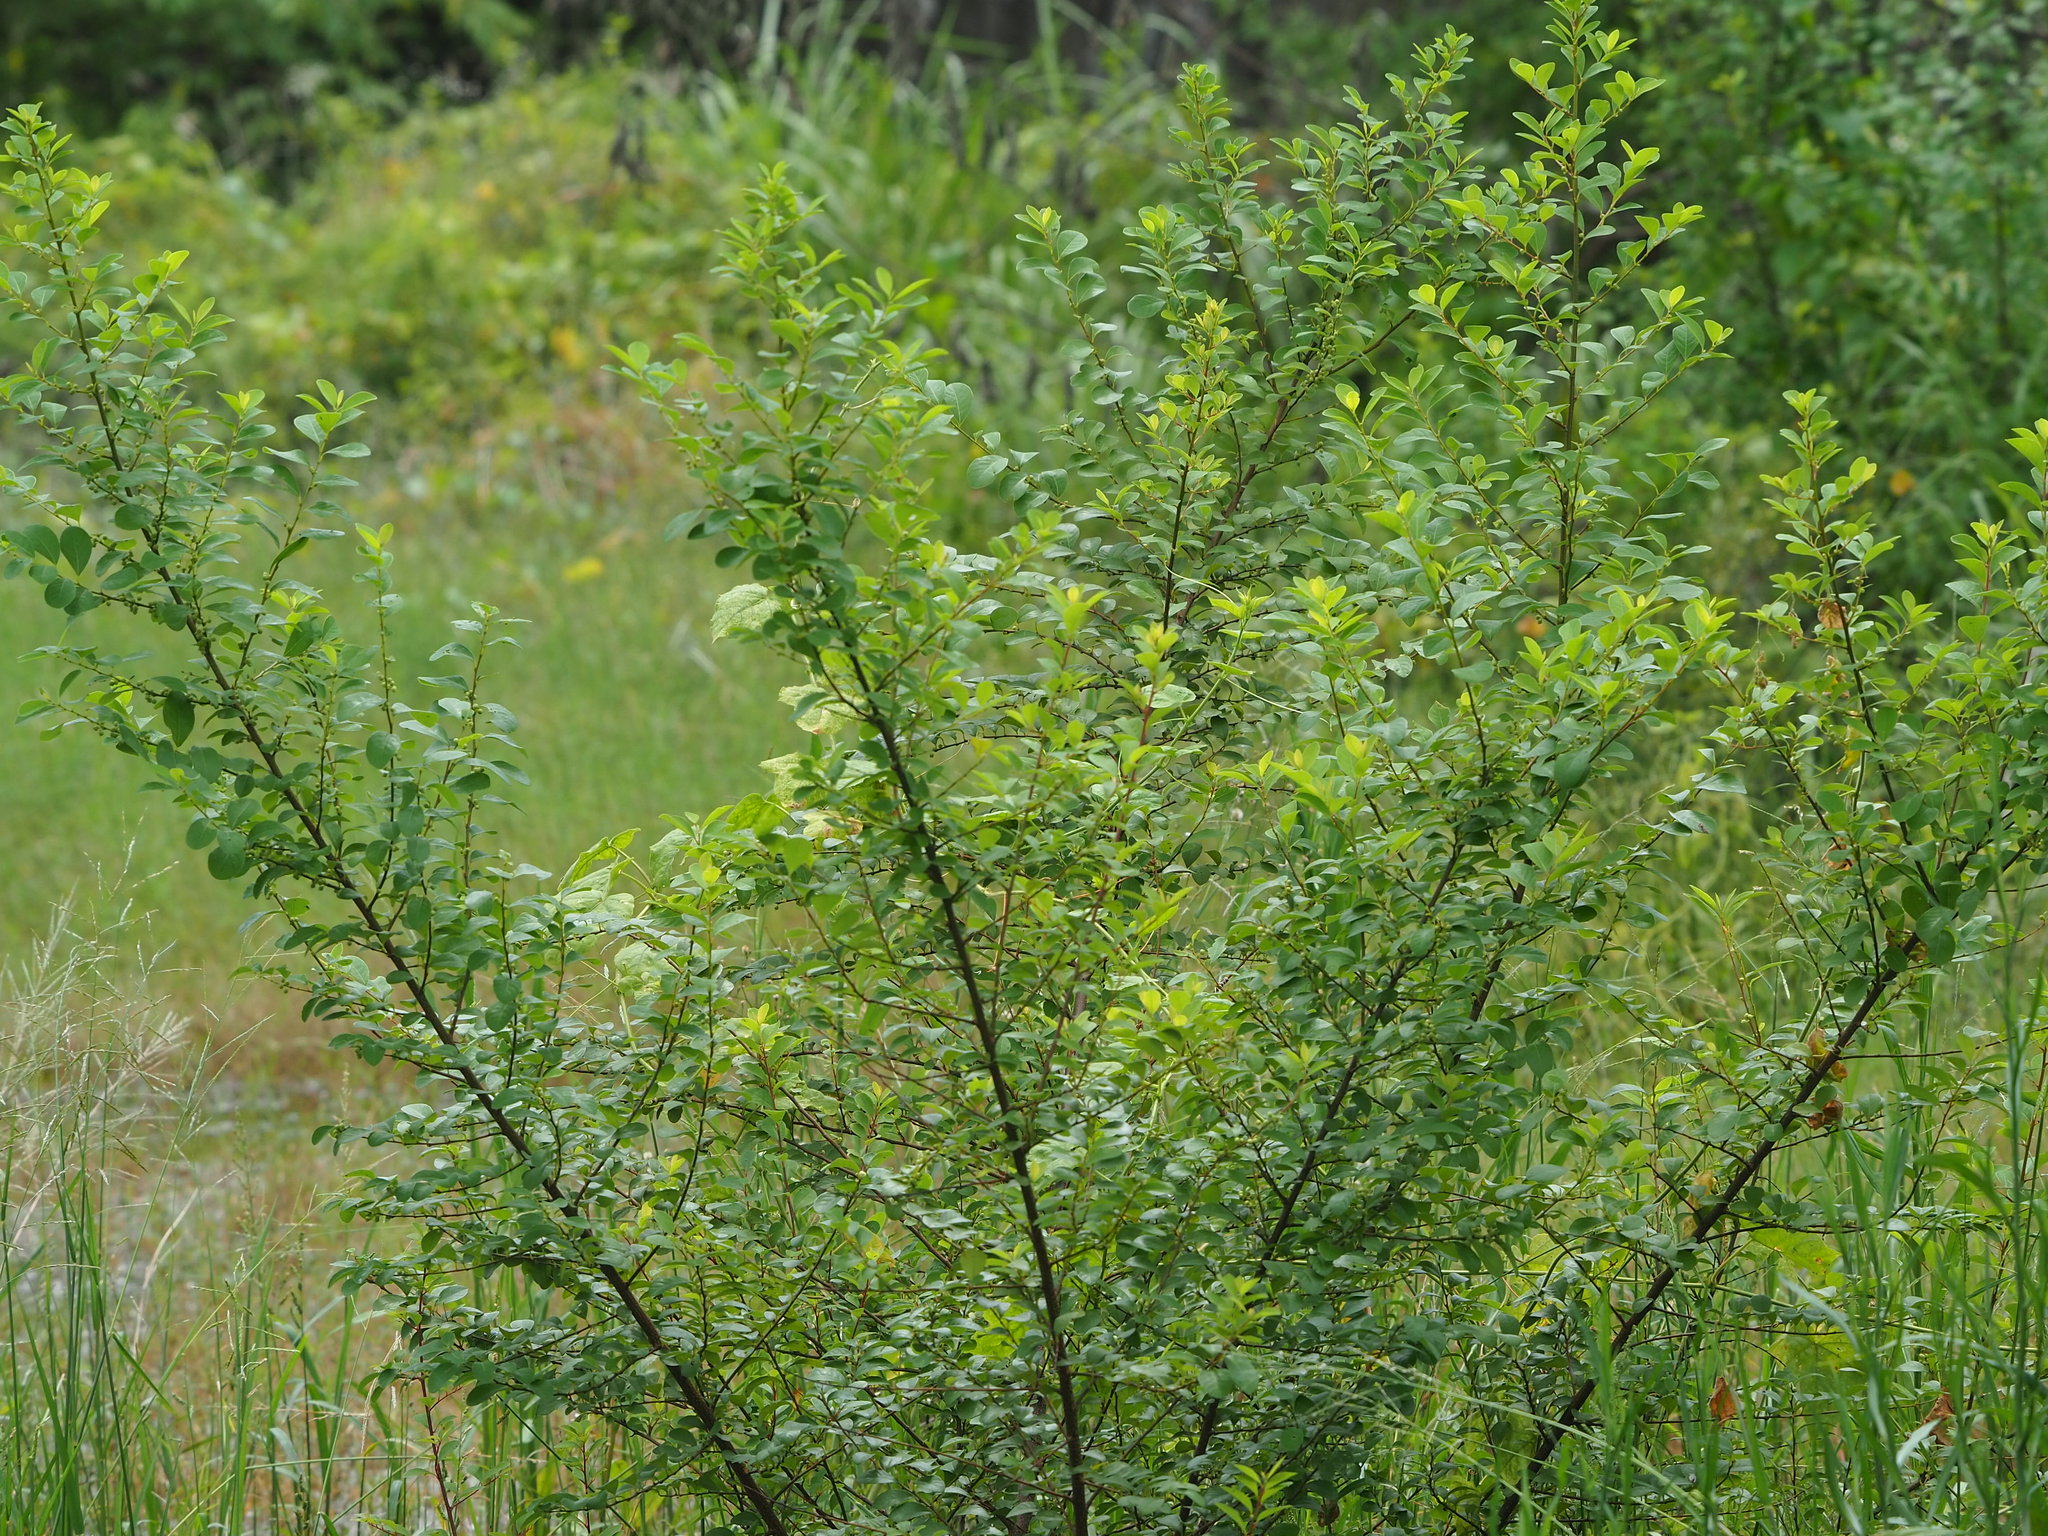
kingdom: Plantae
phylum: Tracheophyta
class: Magnoliopsida
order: Malpighiales
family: Phyllanthaceae
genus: Flueggea
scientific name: Flueggea virosa
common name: Common bushweed
